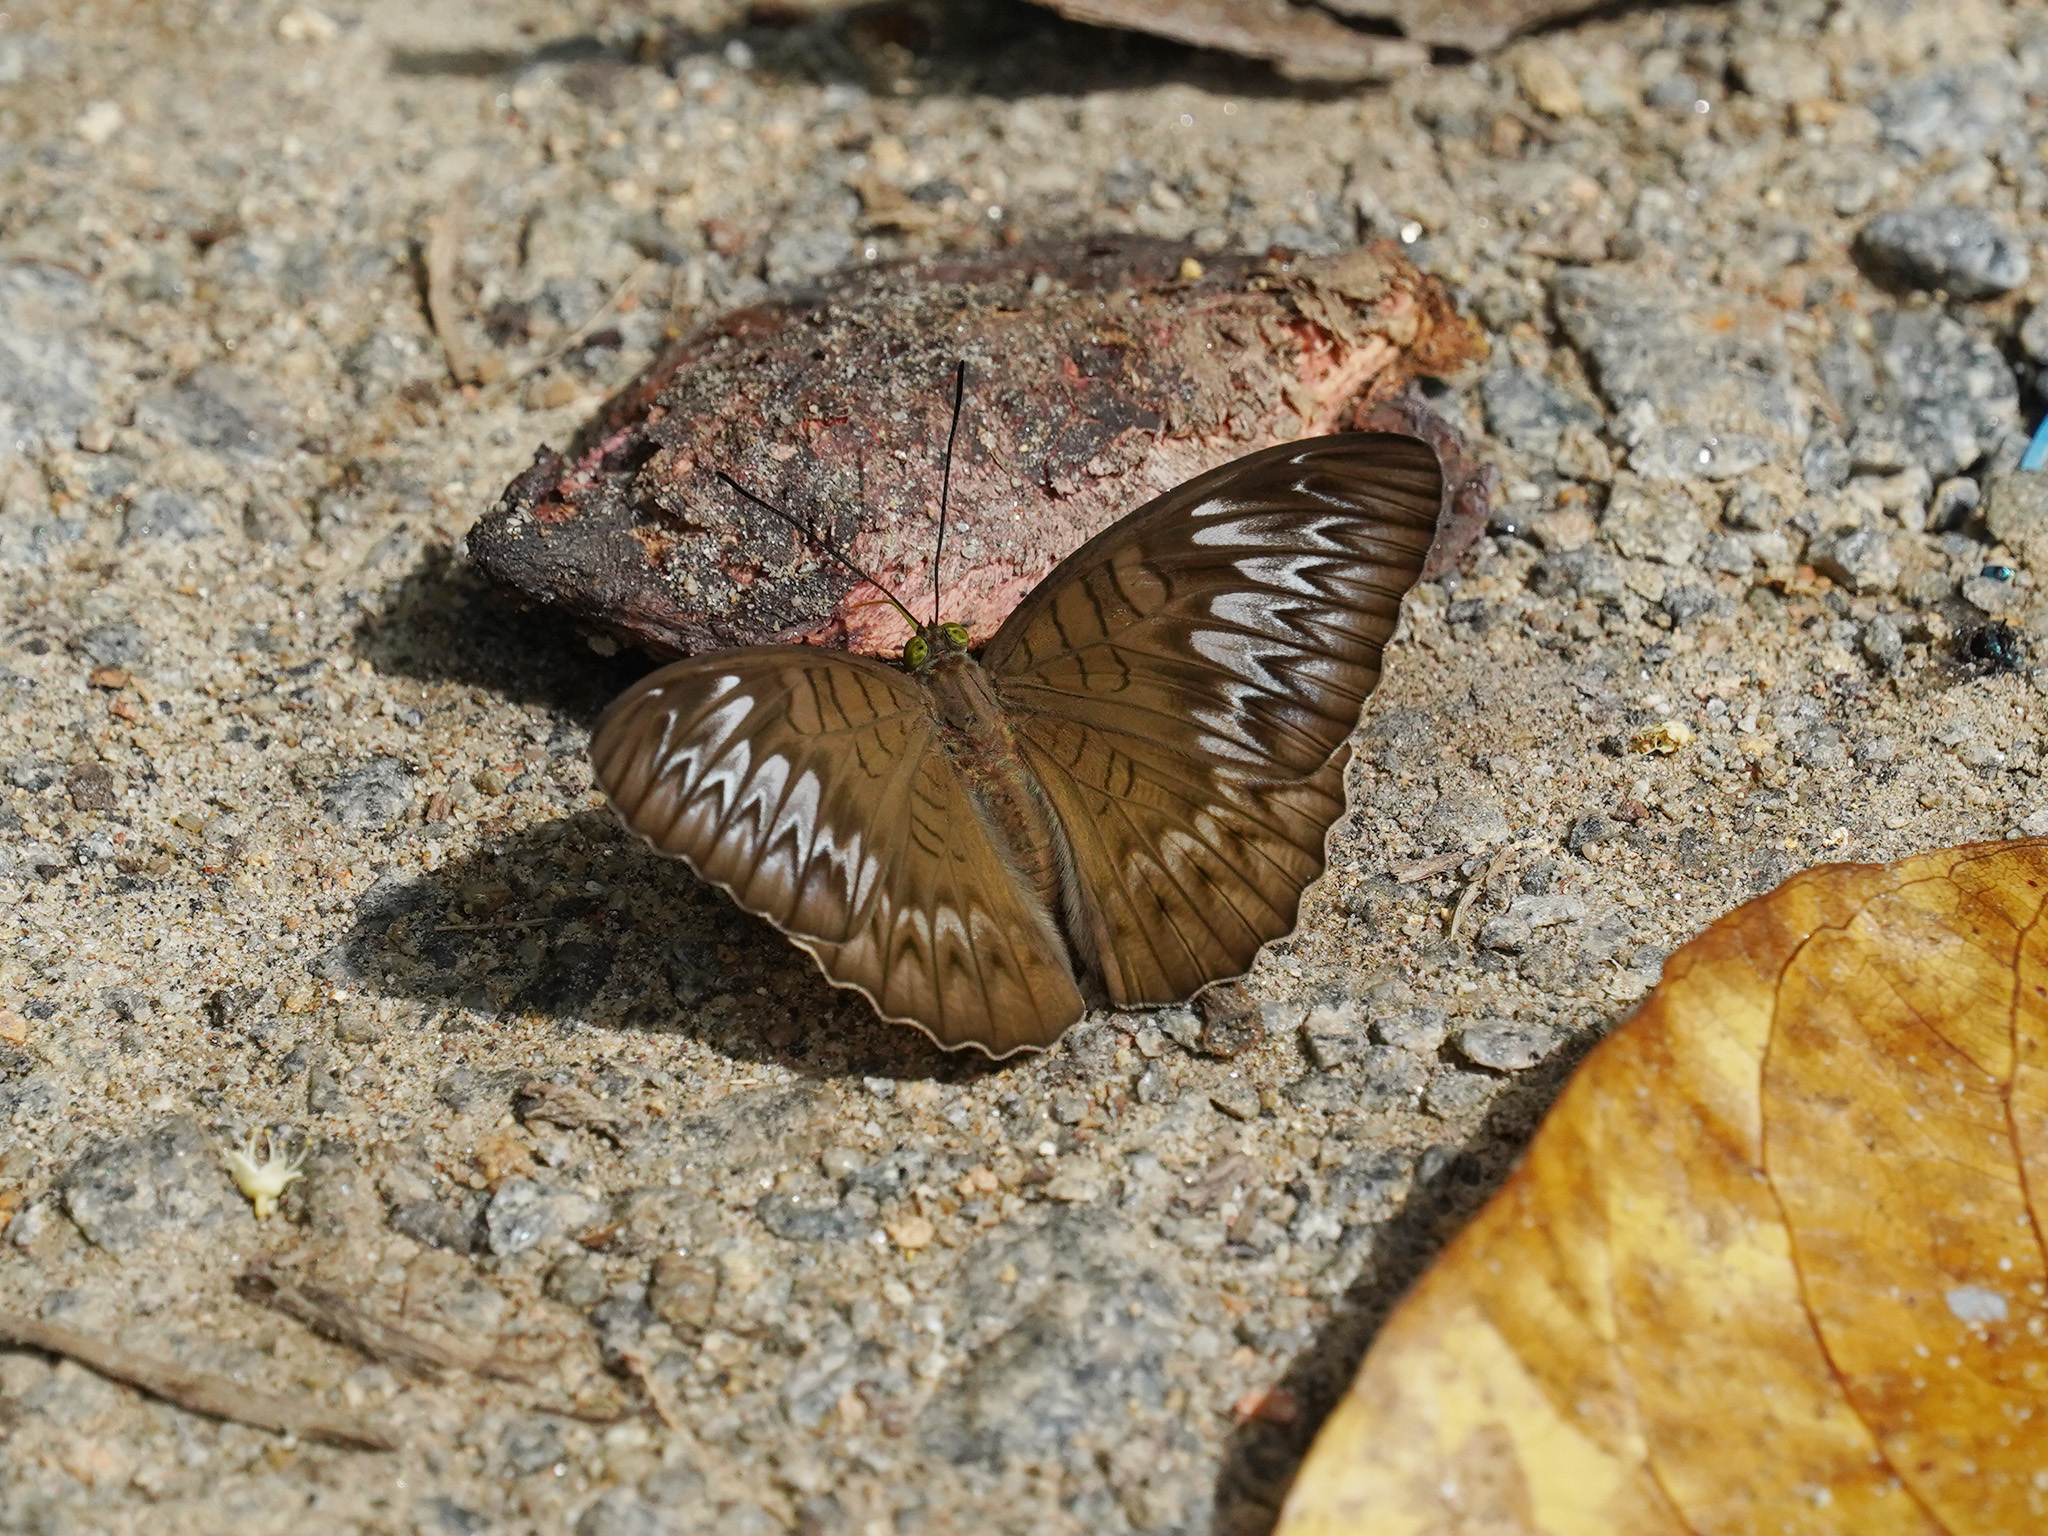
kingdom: Animalia
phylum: Arthropoda
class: Insecta
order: Lepidoptera
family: Nymphalidae
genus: Tanaecia
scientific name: Tanaecia pelea
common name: Malay viscount
